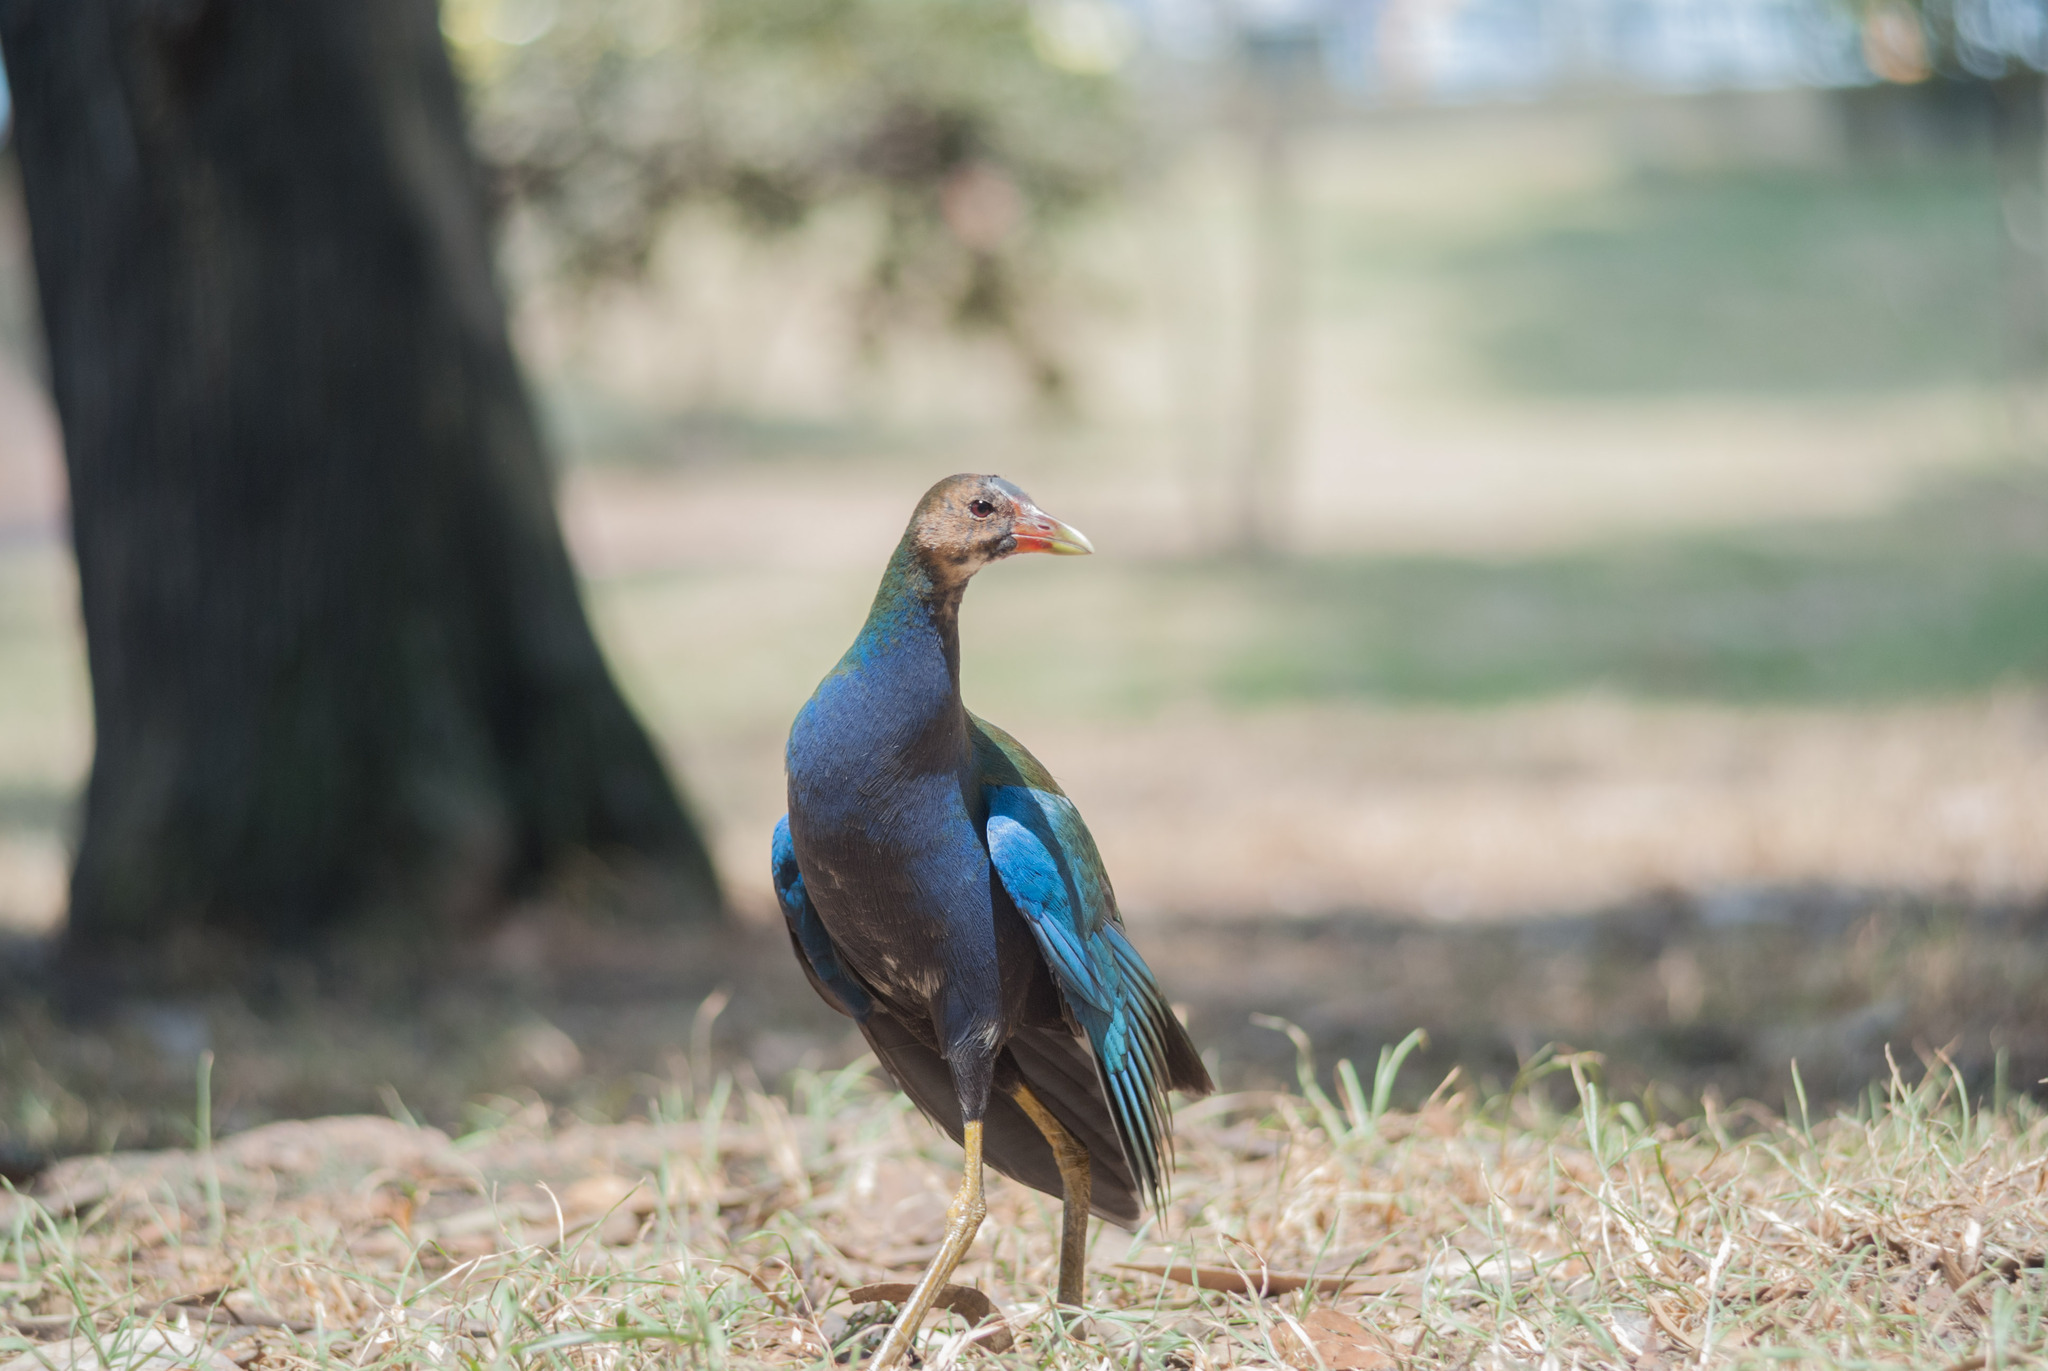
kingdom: Animalia
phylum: Chordata
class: Aves
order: Gruiformes
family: Rallidae
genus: Porphyrio
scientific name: Porphyrio martinica
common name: Purple gallinule
